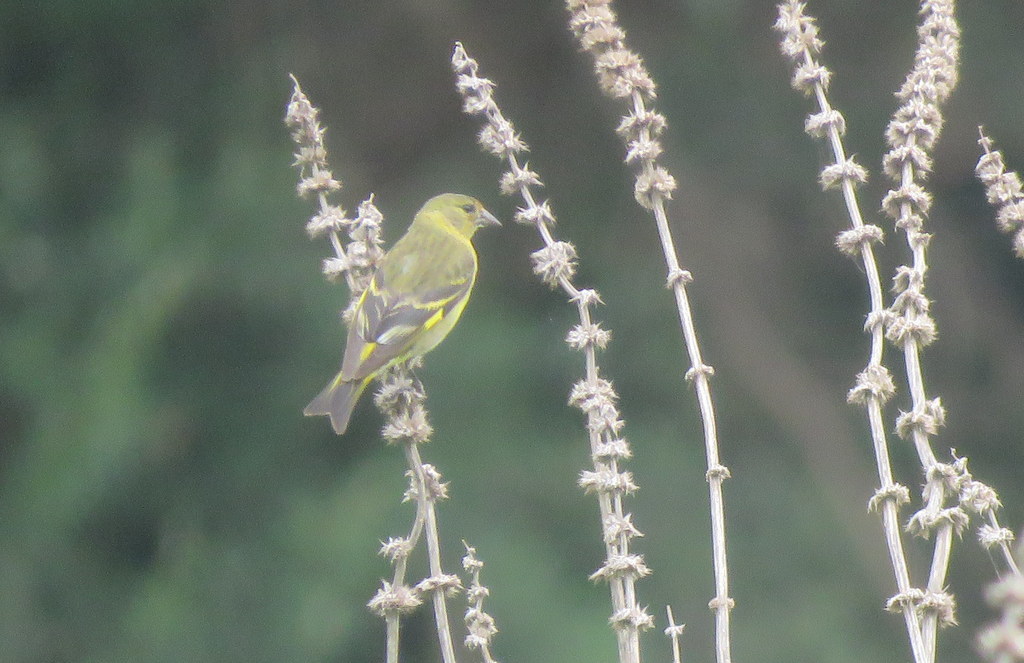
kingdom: Animalia
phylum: Chordata
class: Aves
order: Passeriformes
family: Fringillidae
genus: Spinus
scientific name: Spinus magellanicus
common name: Hooded siskin
